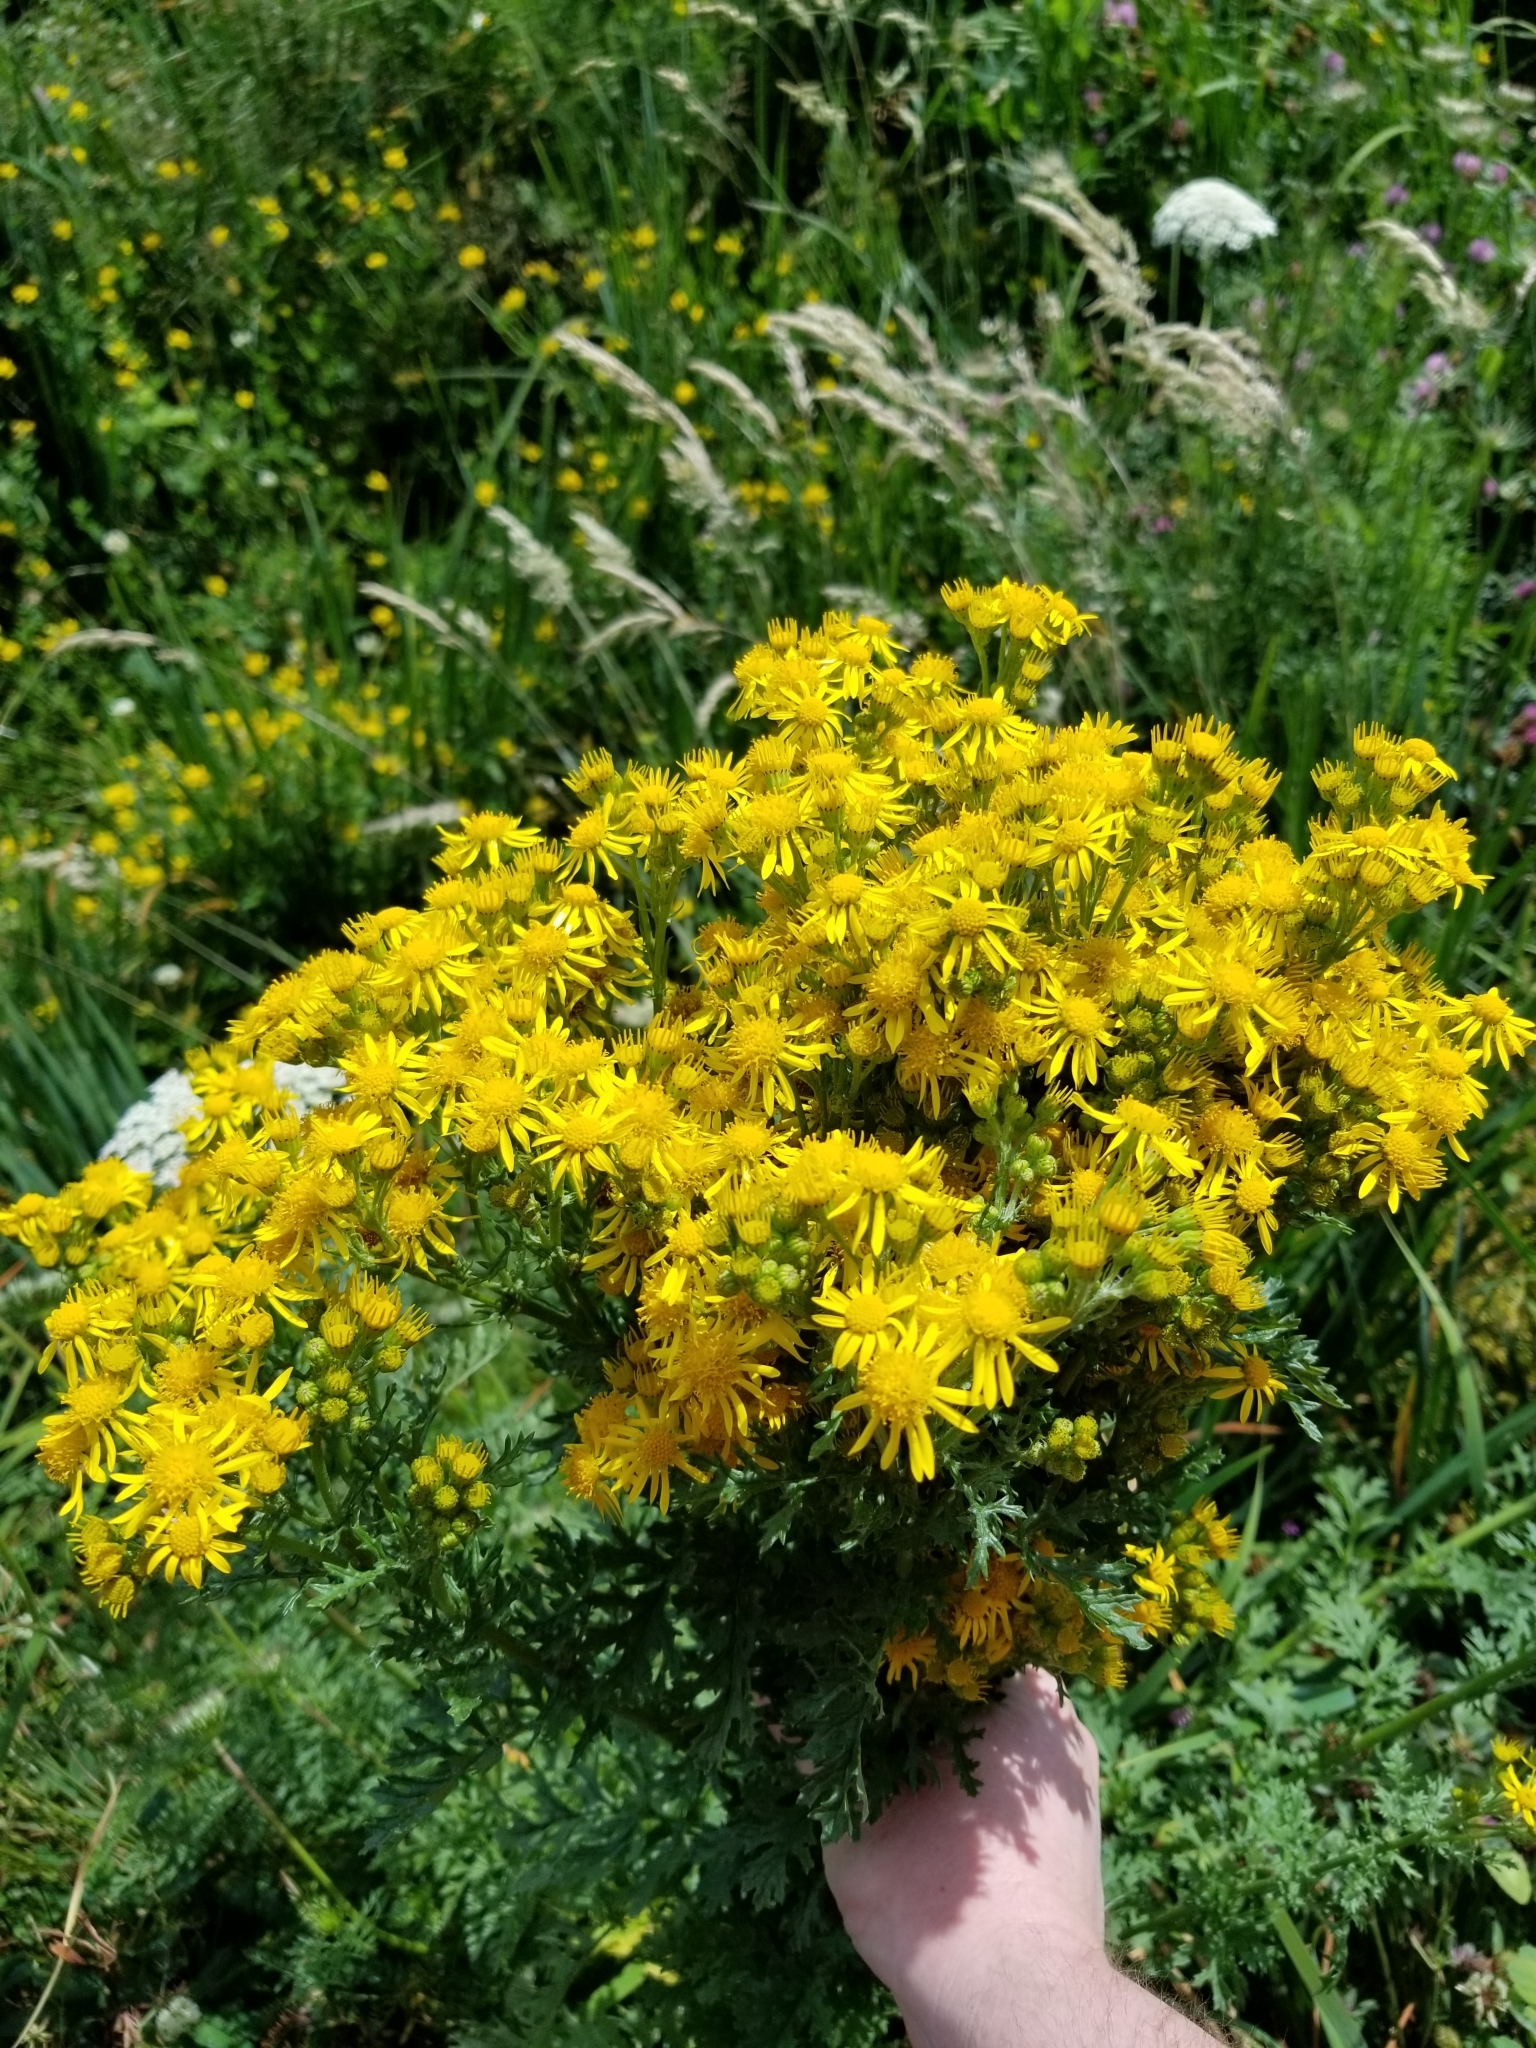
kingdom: Plantae
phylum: Tracheophyta
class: Magnoliopsida
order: Asterales
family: Asteraceae
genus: Jacobaea
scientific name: Jacobaea vulgaris
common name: Stinking willie
